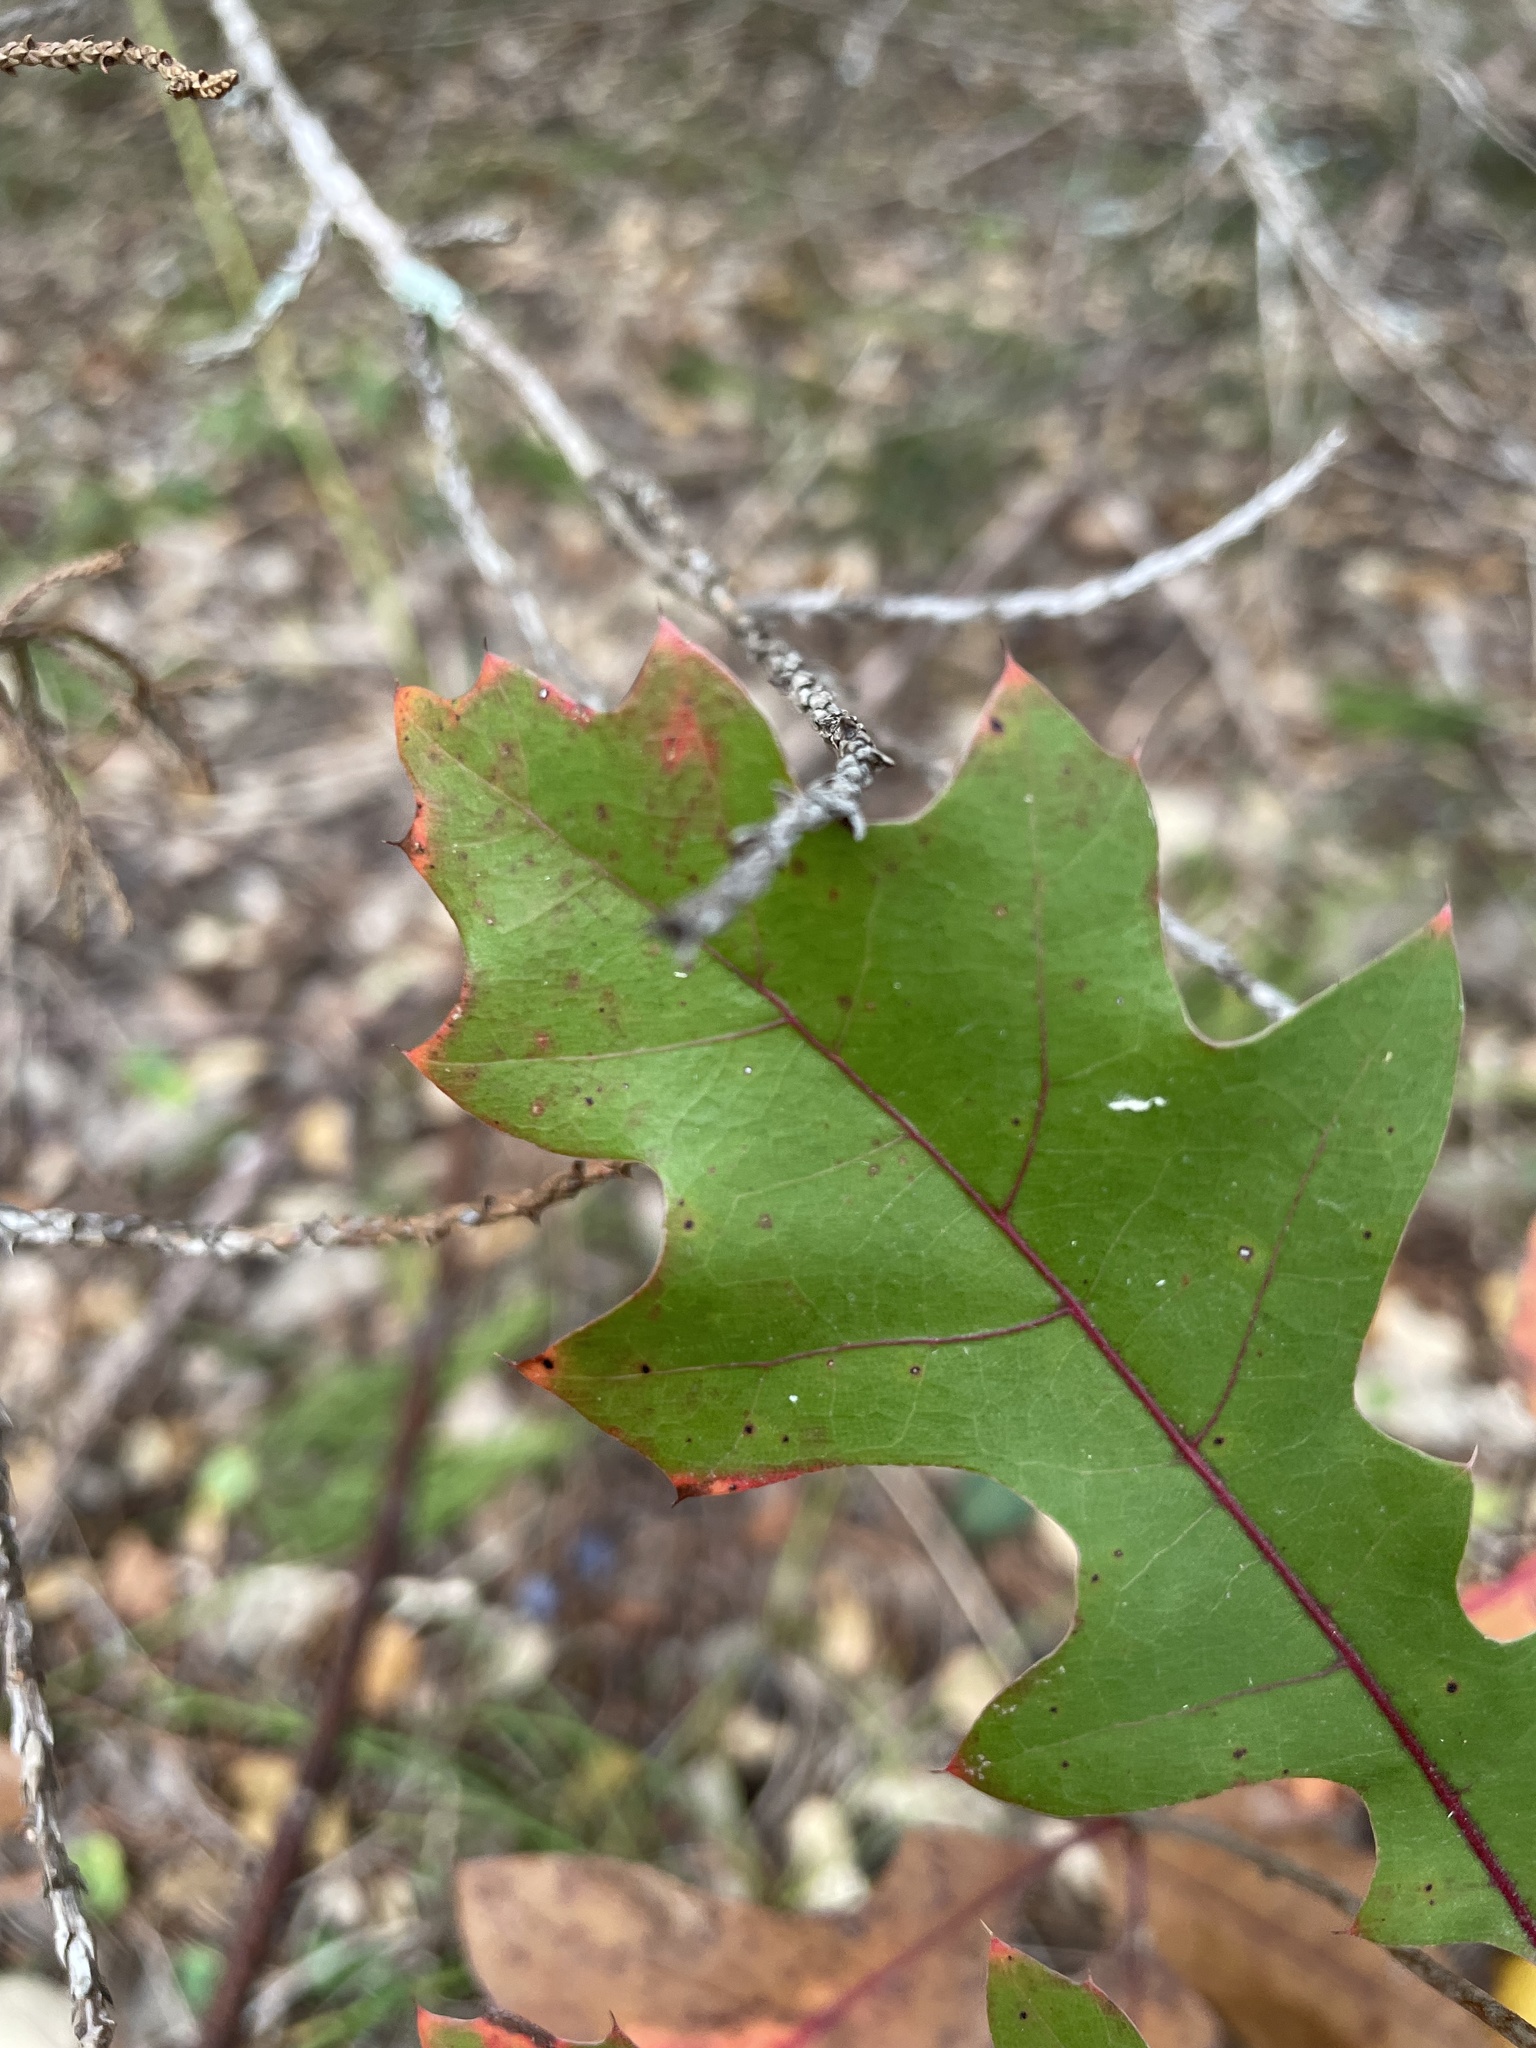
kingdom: Plantae
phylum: Tracheophyta
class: Magnoliopsida
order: Fagales
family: Fagaceae
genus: Quercus
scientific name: Quercus shumardii
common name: Shumard oak
